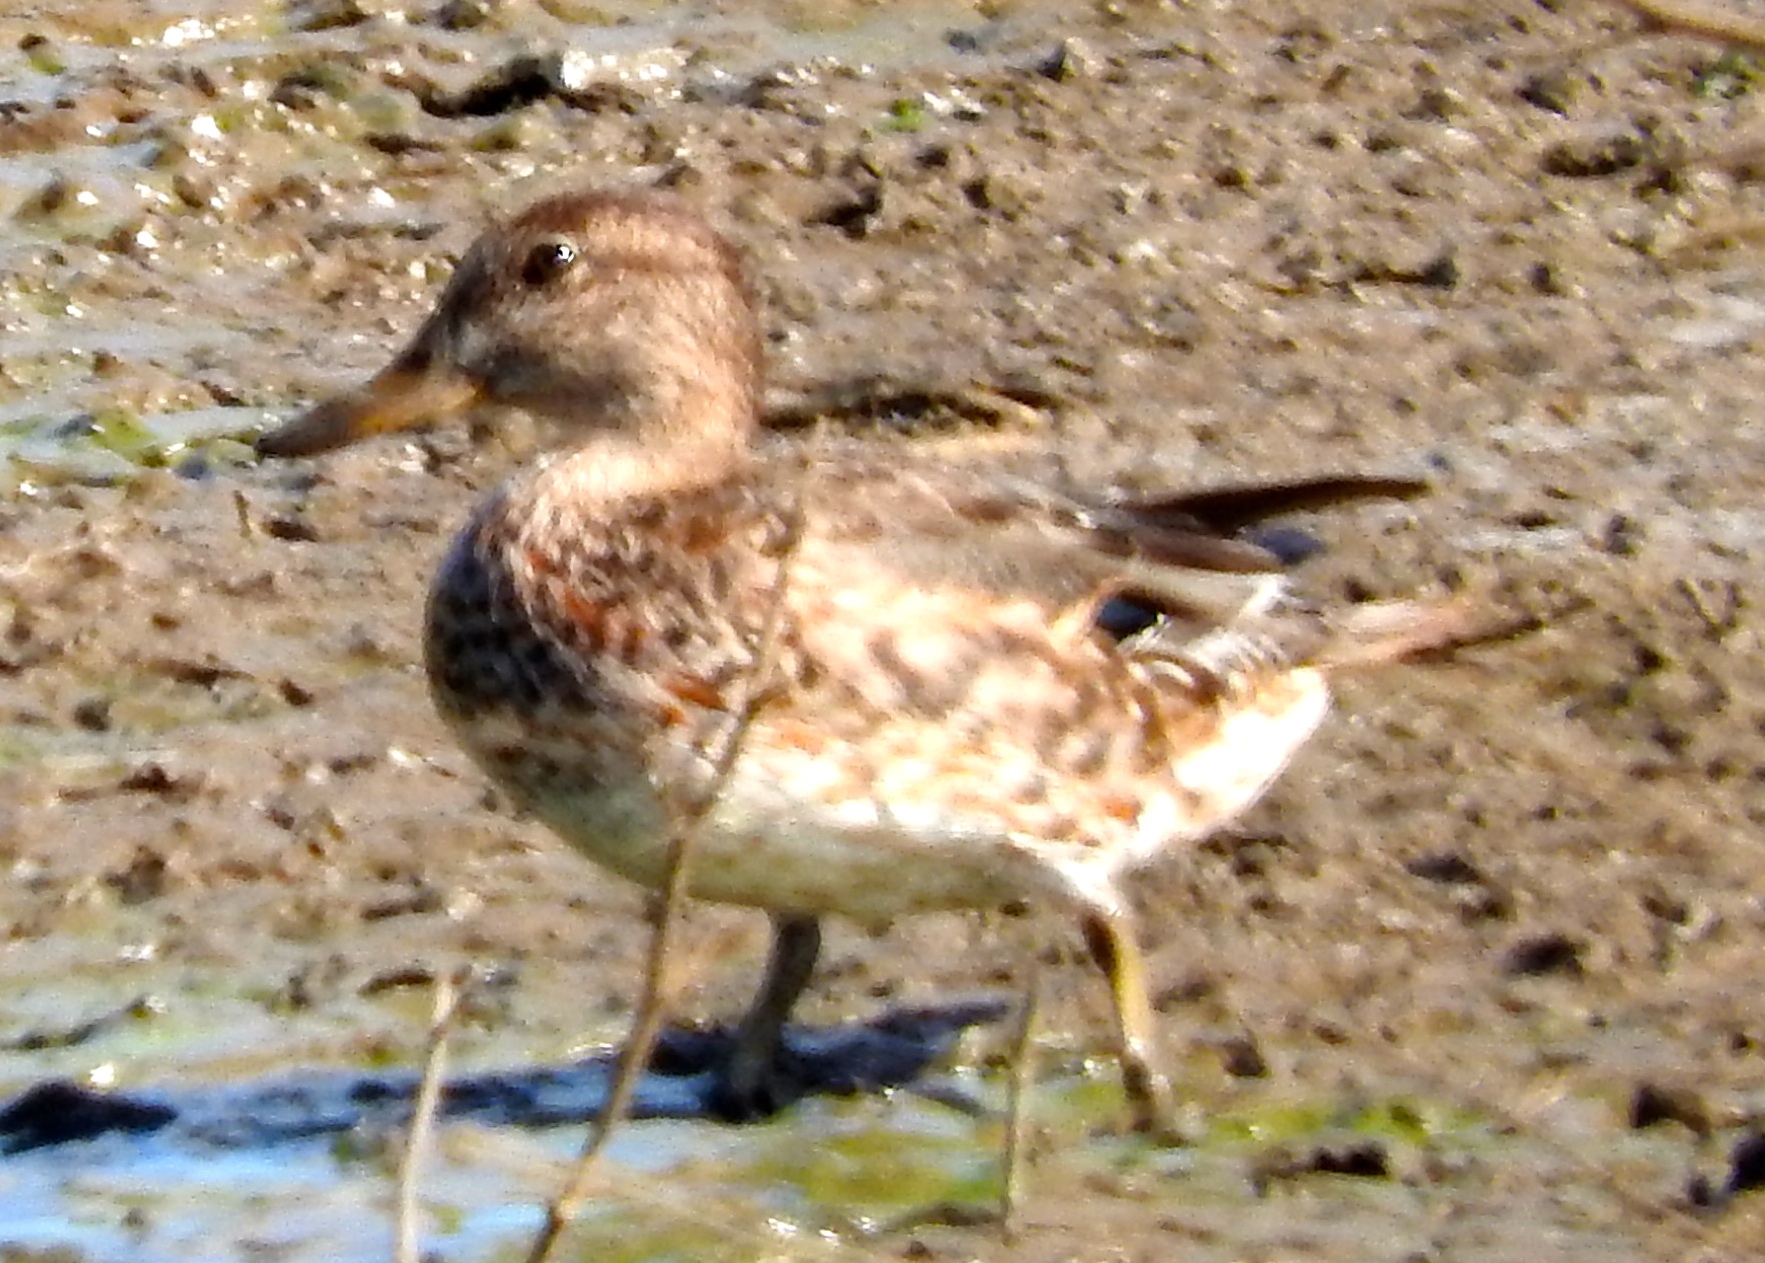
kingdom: Animalia
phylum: Chordata
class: Aves
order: Anseriformes
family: Anatidae
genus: Anas
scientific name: Anas crecca
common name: Eurasian teal
